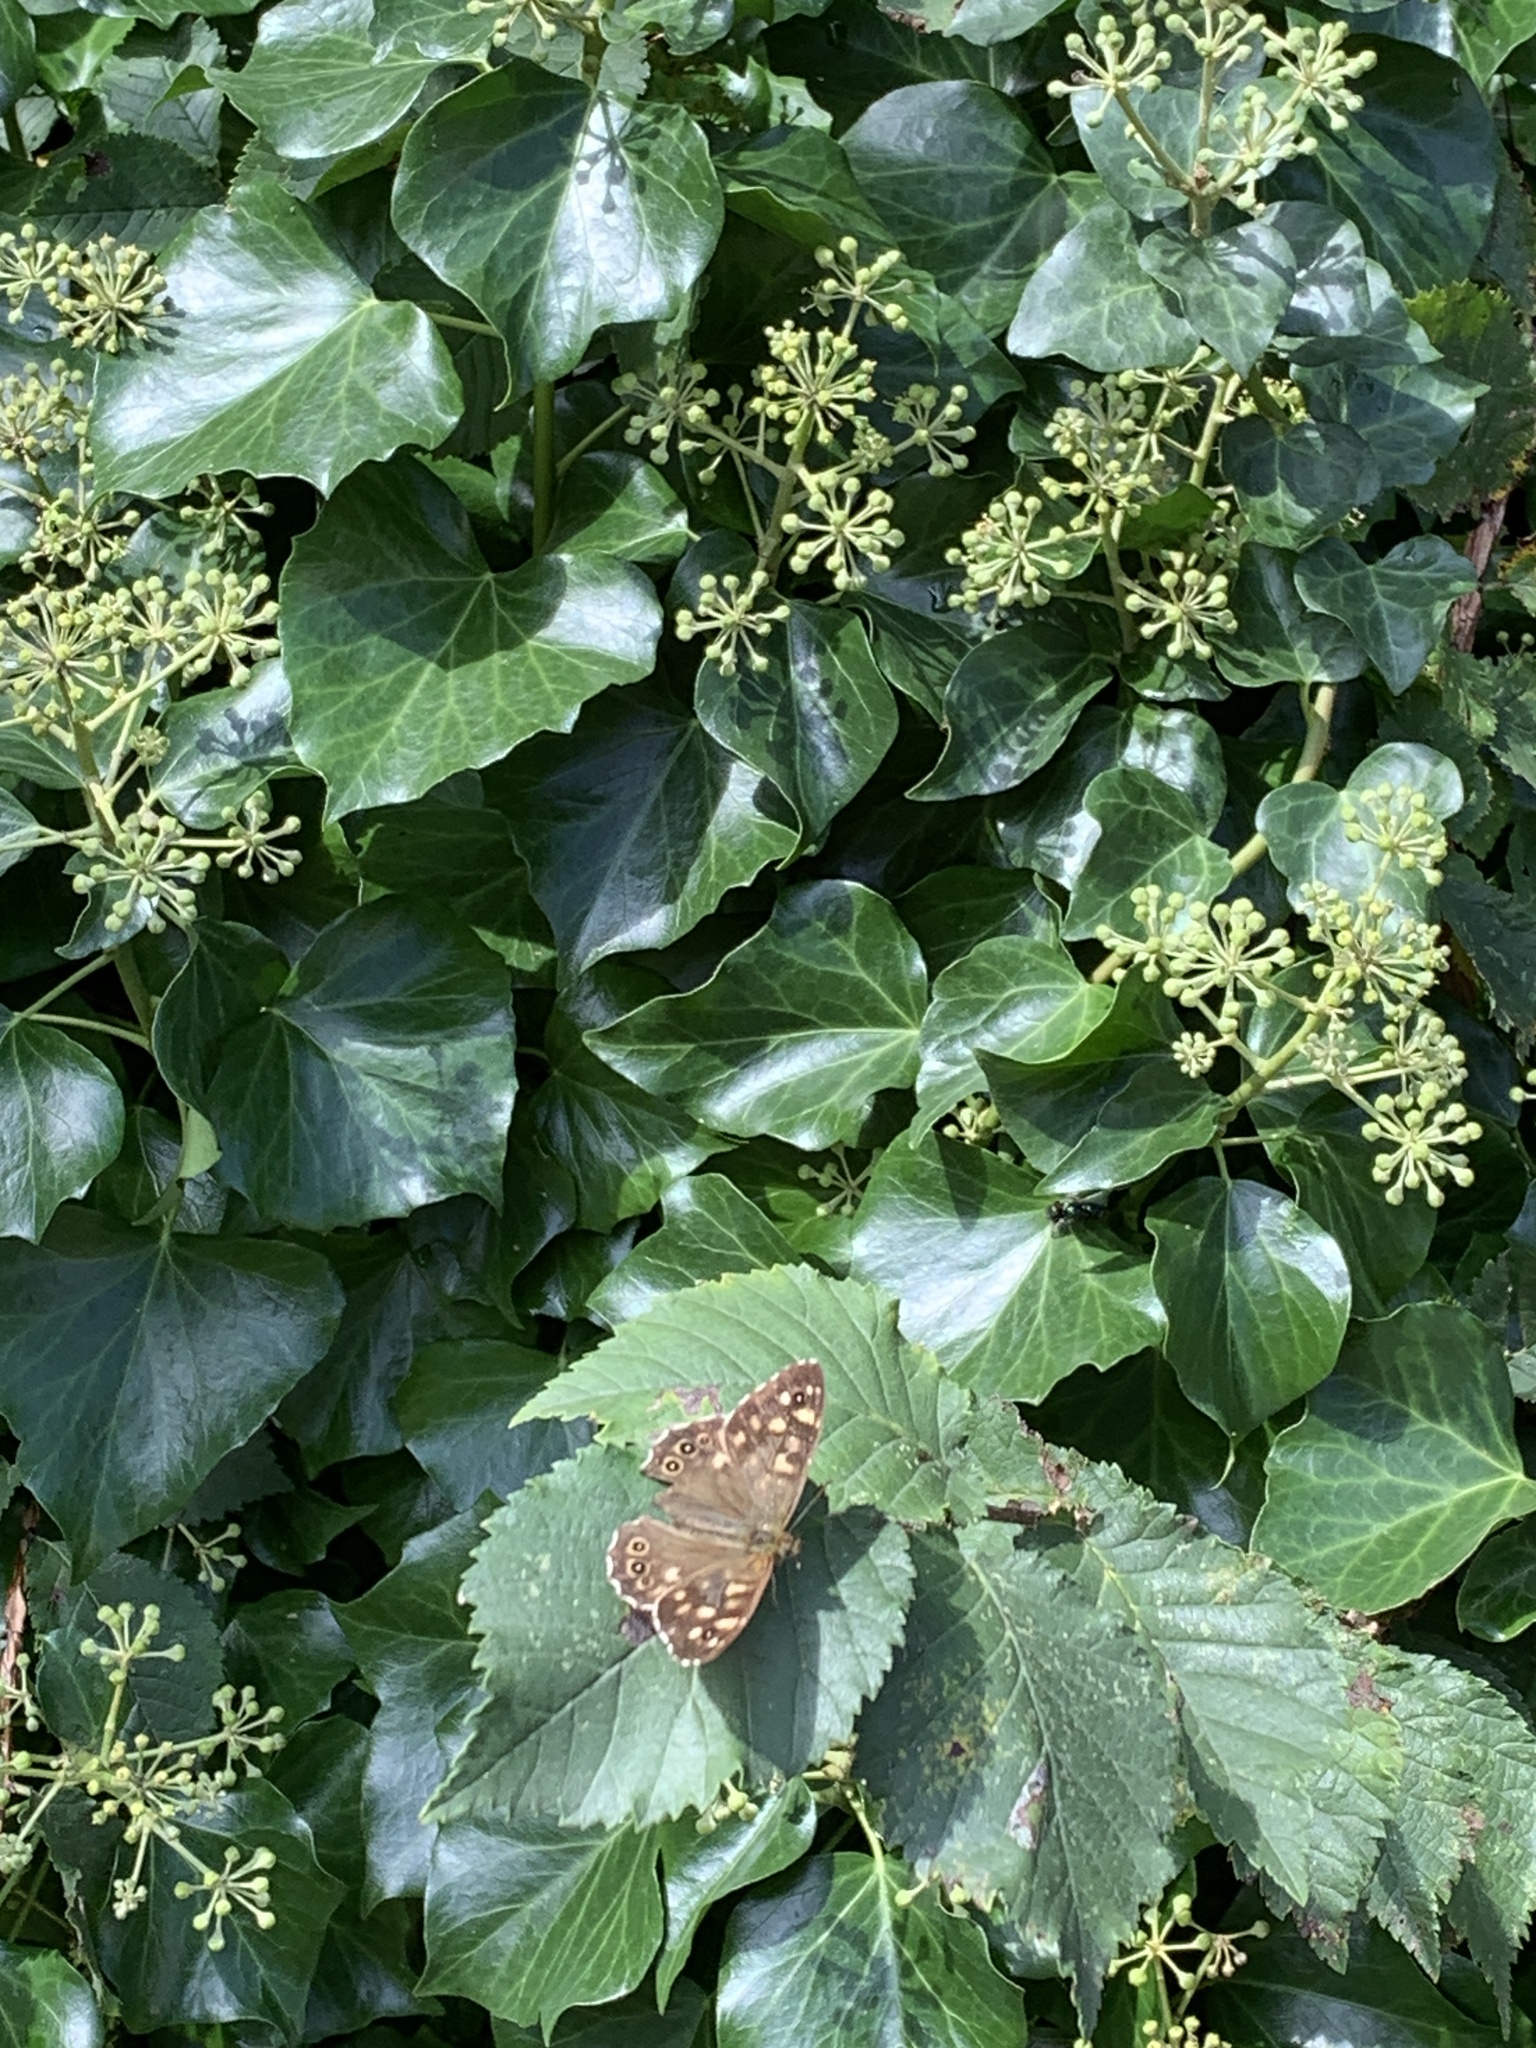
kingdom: Animalia
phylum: Arthropoda
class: Insecta
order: Lepidoptera
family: Nymphalidae
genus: Pararge
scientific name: Pararge aegeria
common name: Speckled wood
